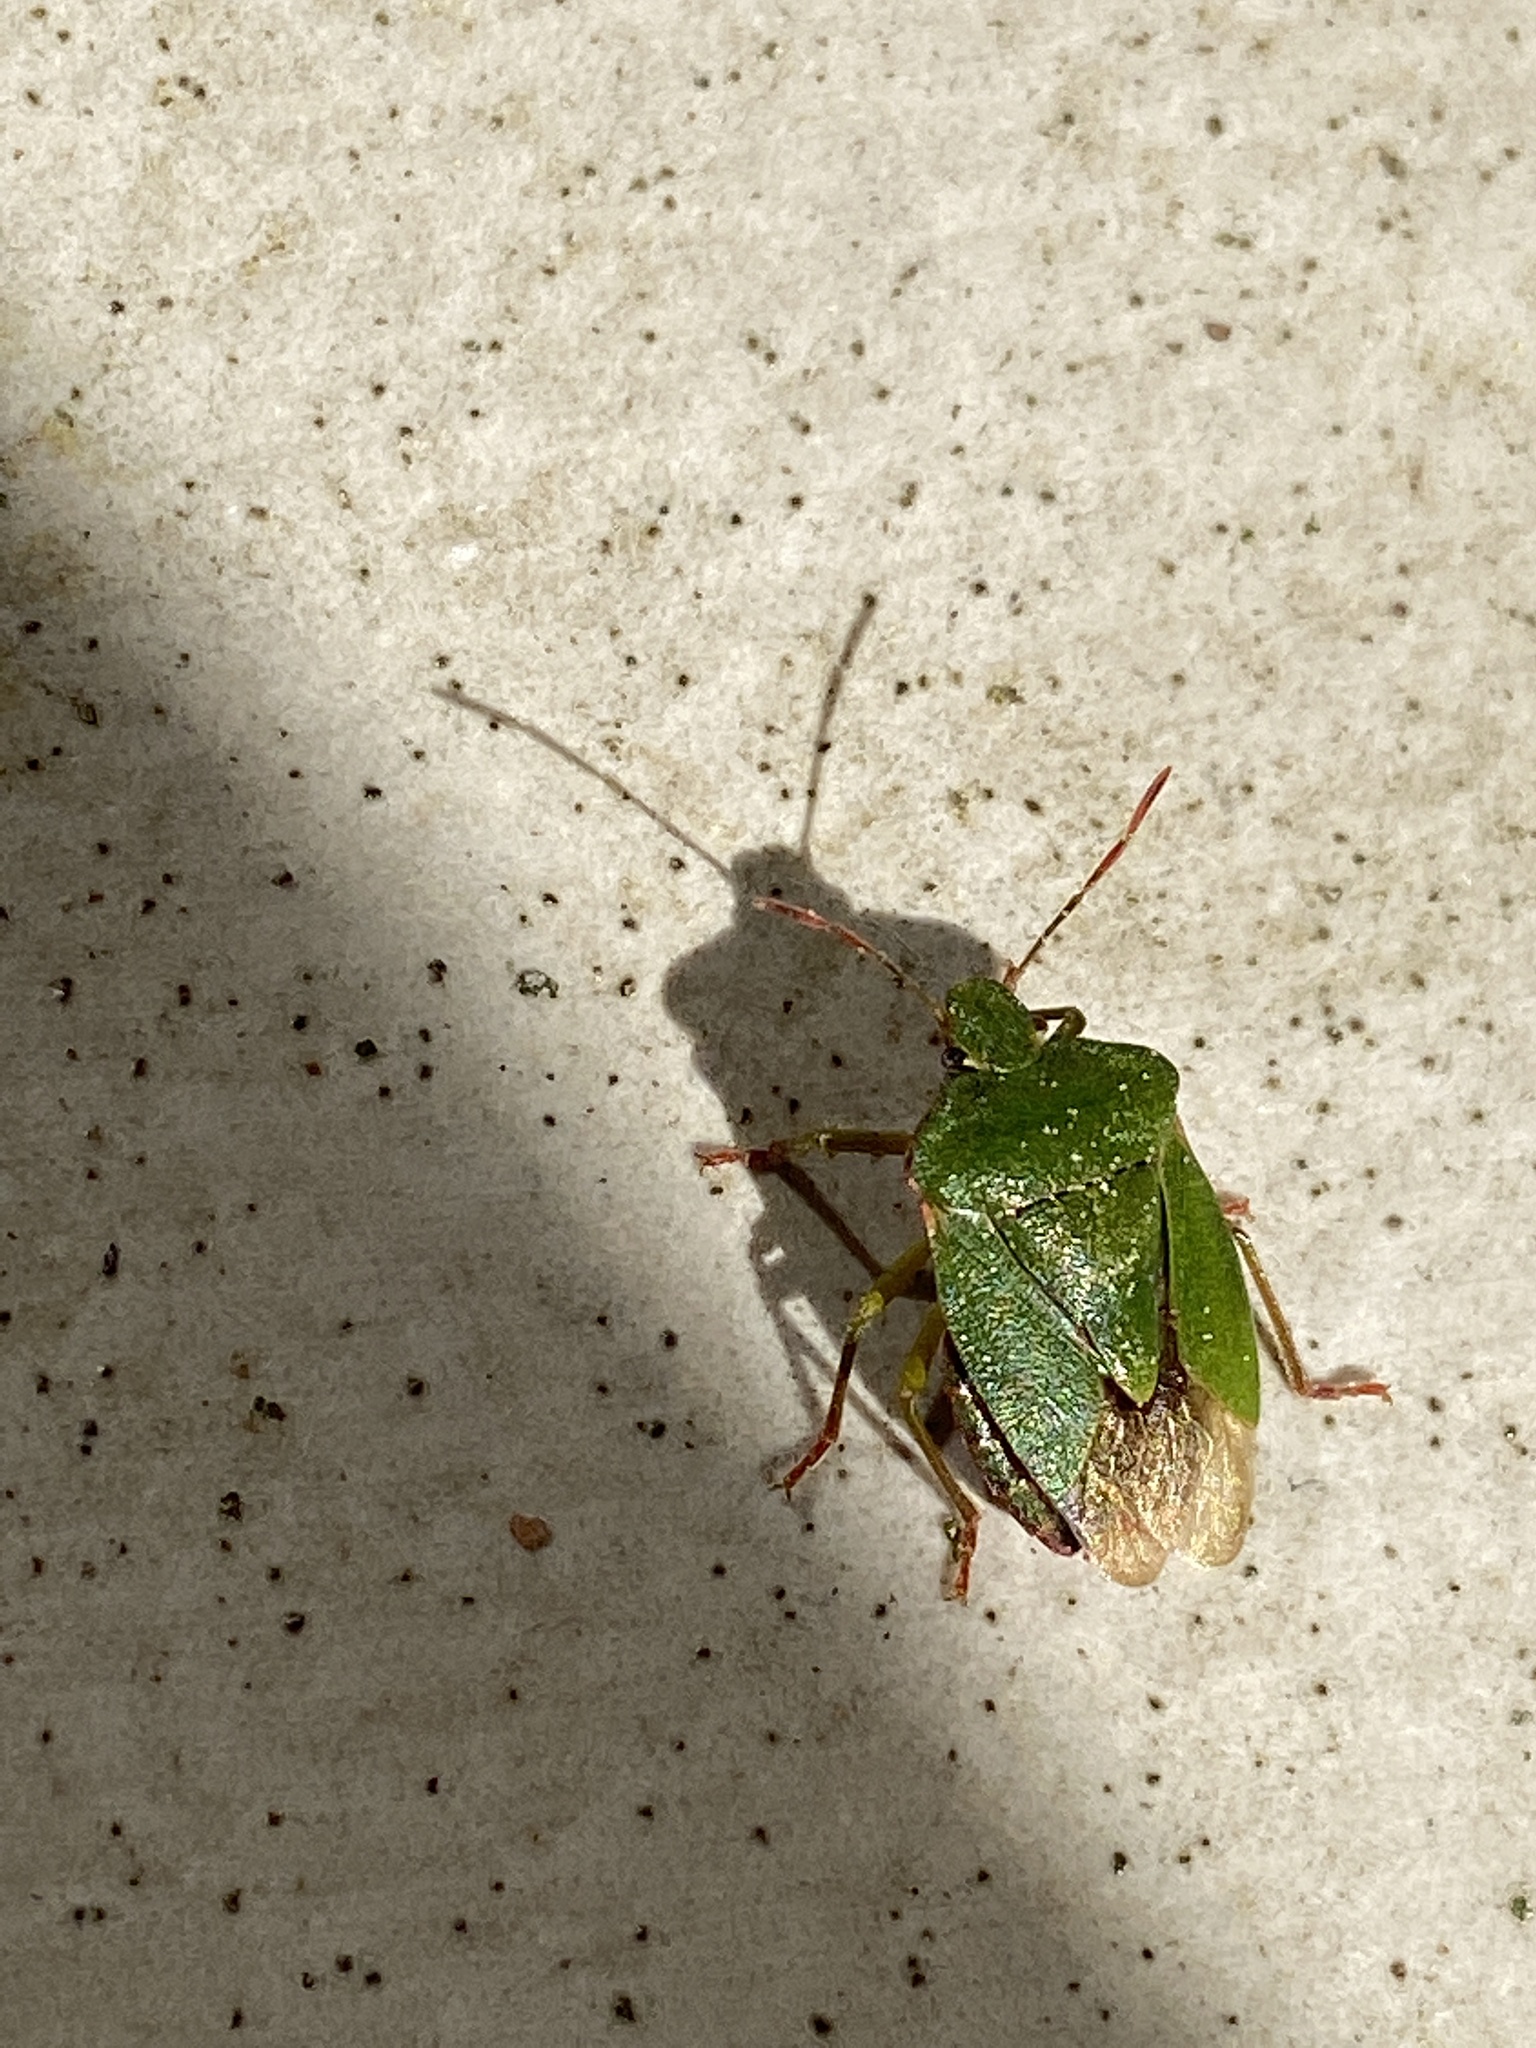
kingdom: Animalia
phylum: Arthropoda
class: Insecta
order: Hemiptera
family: Pentatomidae
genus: Palomena
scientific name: Palomena prasina
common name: Green shieldbug
